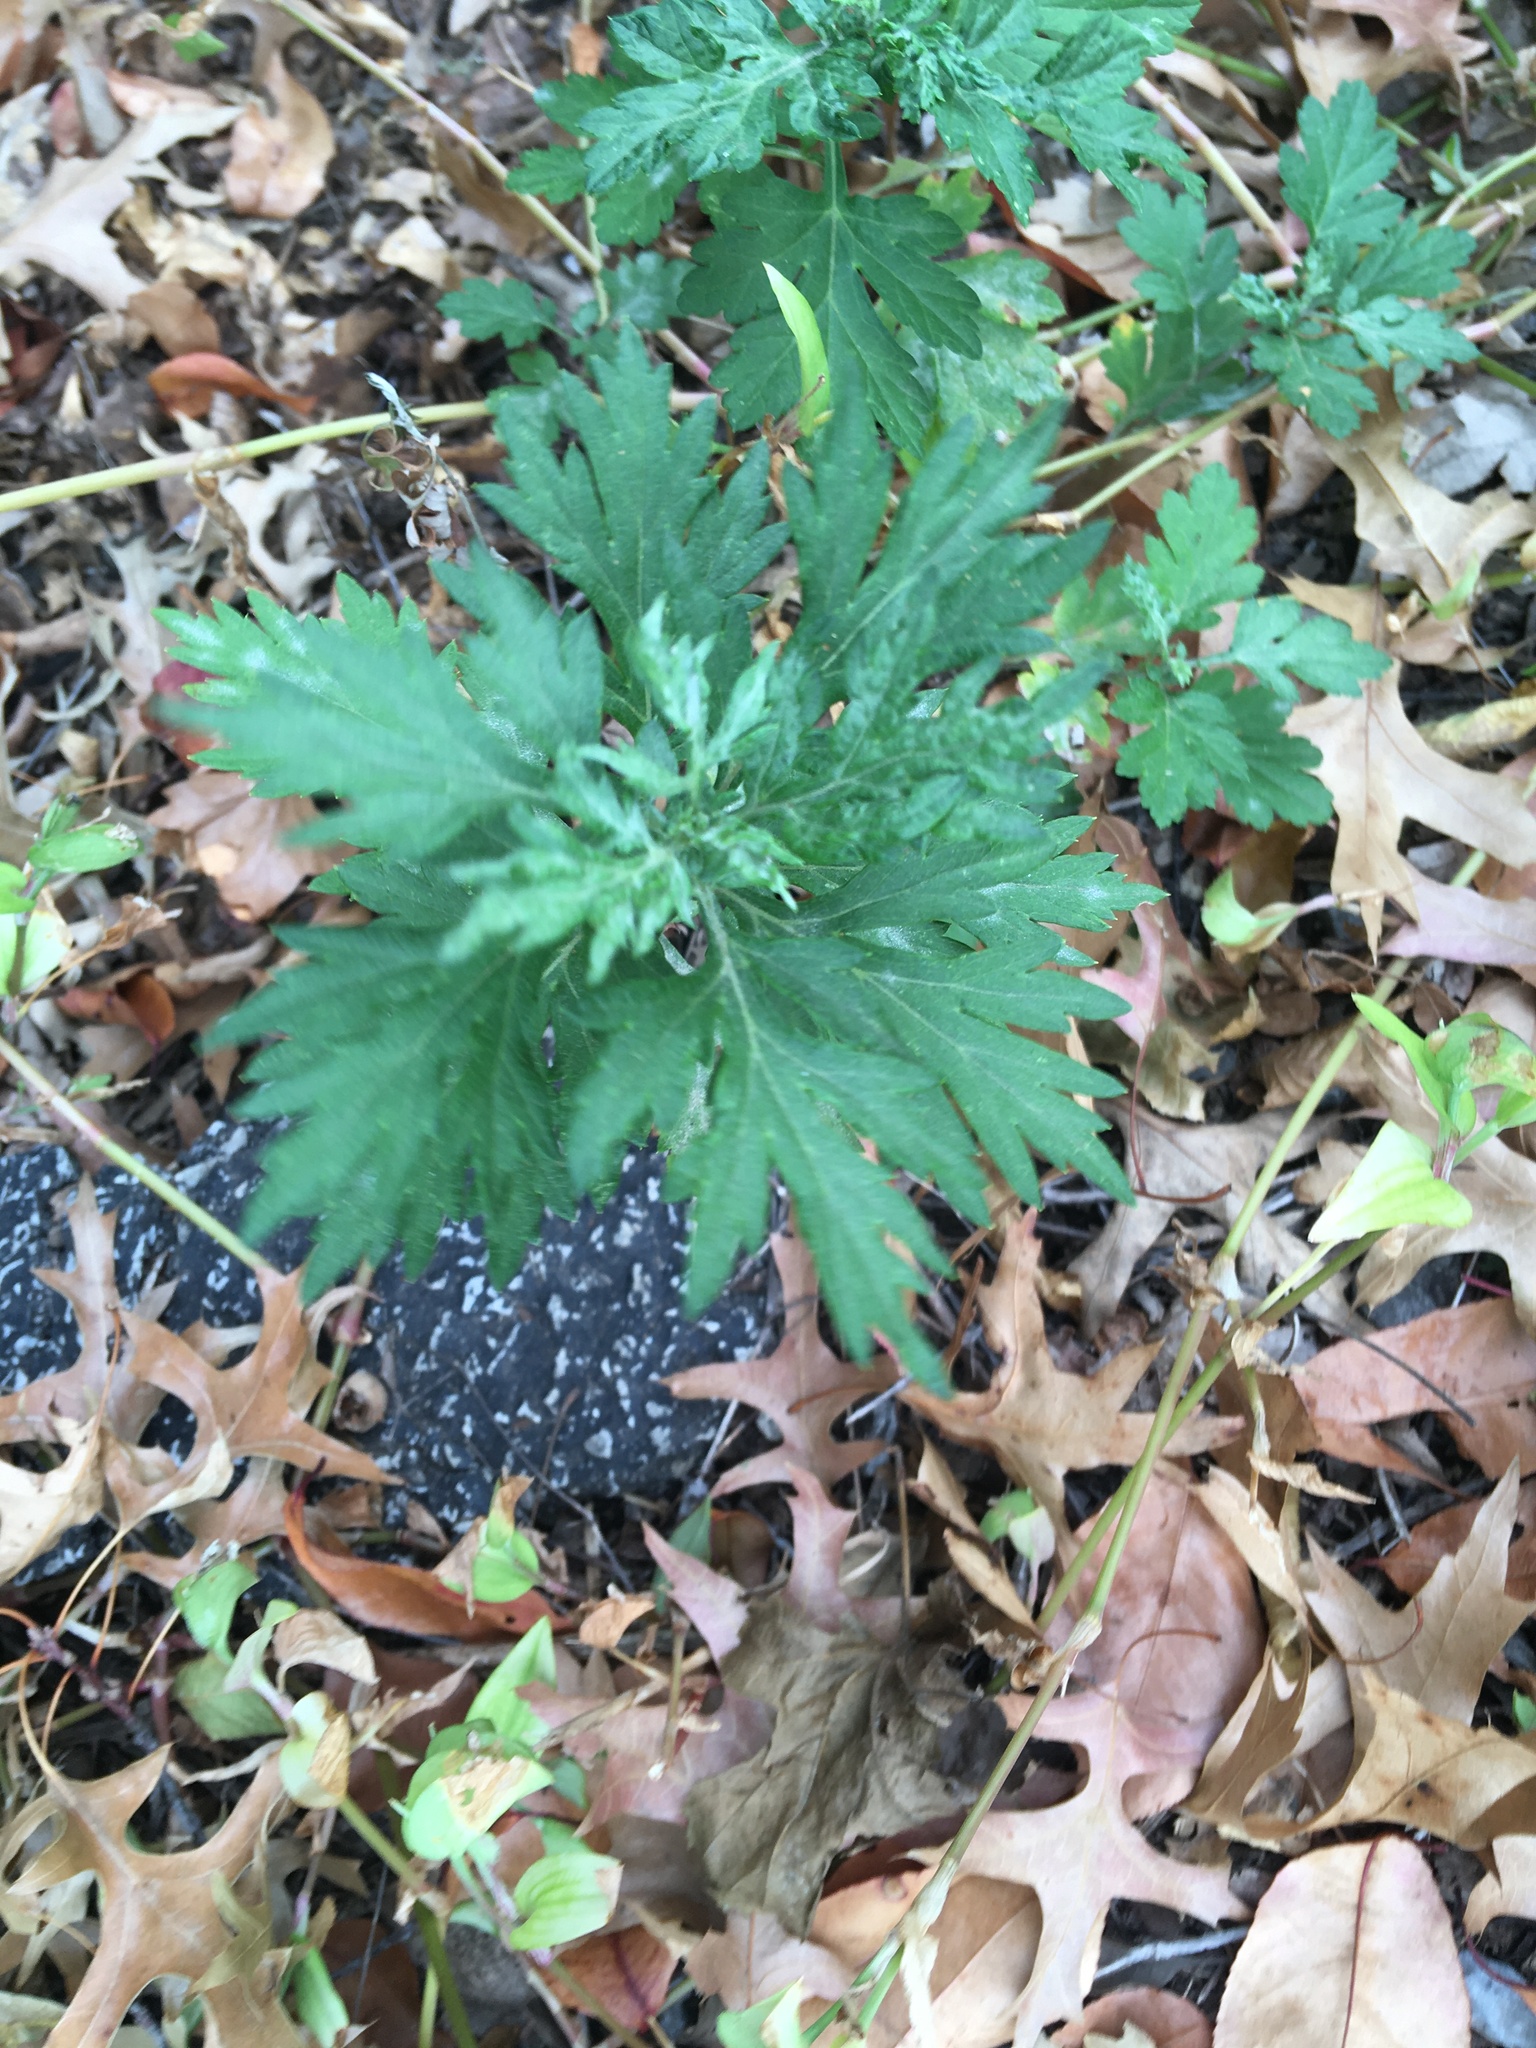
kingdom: Plantae
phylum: Tracheophyta
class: Magnoliopsida
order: Asterales
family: Asteraceae
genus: Artemisia
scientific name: Artemisia vulgaris
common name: Mugwort
